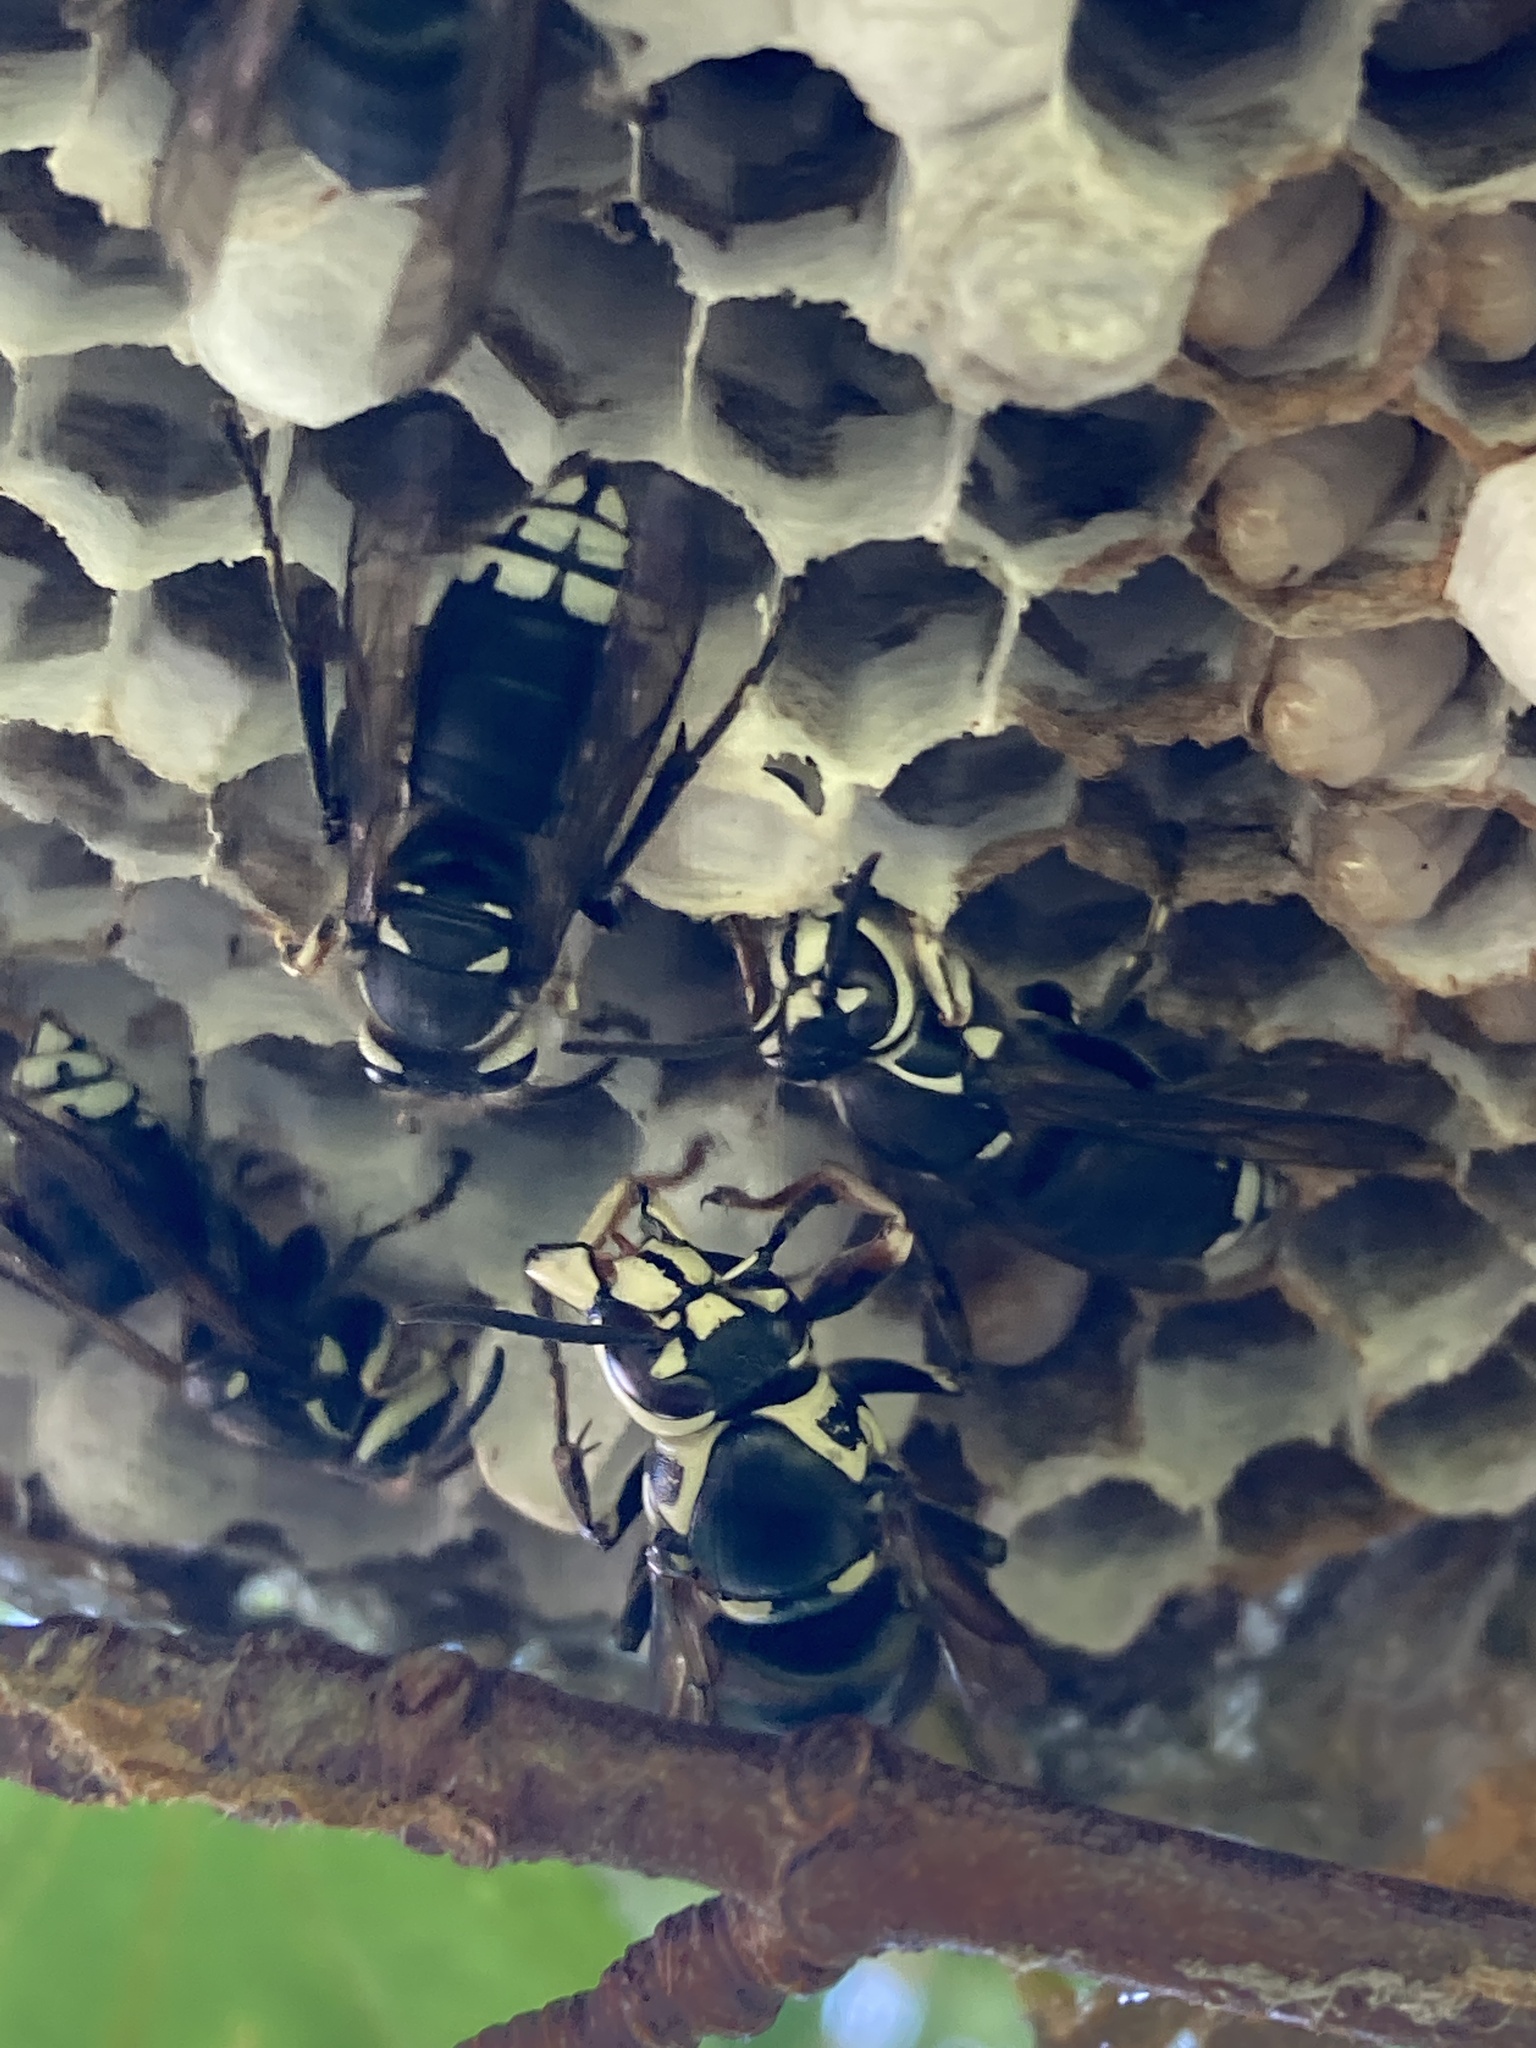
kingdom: Animalia
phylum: Arthropoda
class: Insecta
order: Hymenoptera
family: Vespidae
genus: Dolichovespula
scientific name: Dolichovespula maculata
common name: Bald-faced hornet
